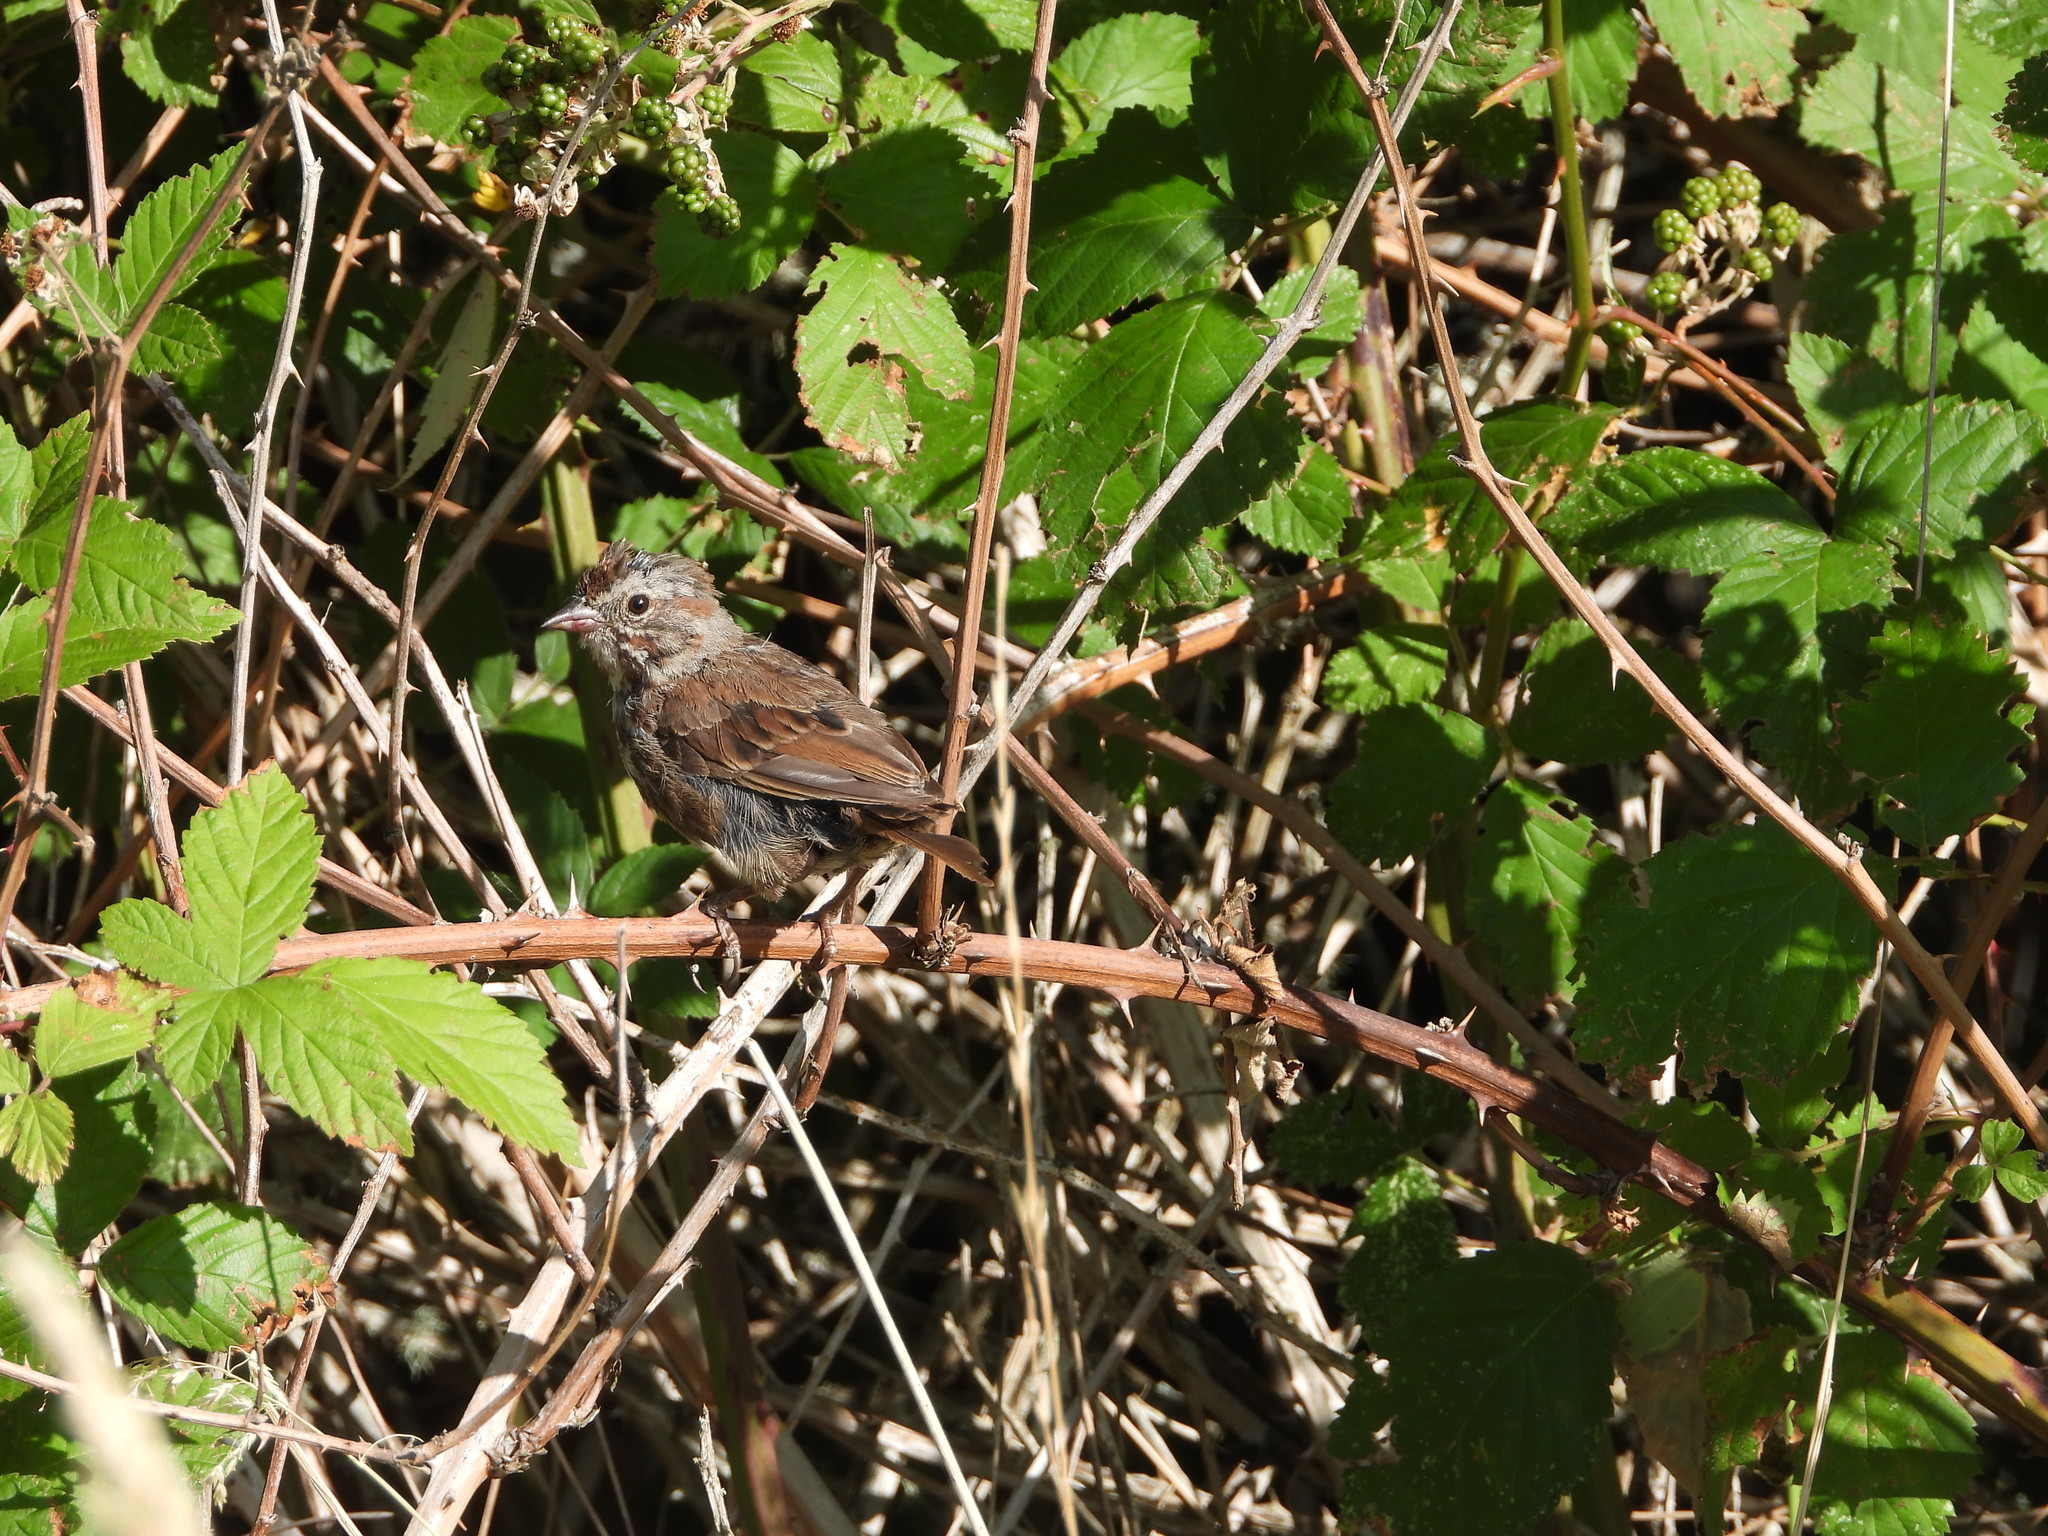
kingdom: Animalia
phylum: Chordata
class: Aves
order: Passeriformes
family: Passerellidae
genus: Melospiza
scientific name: Melospiza melodia
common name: Song sparrow
